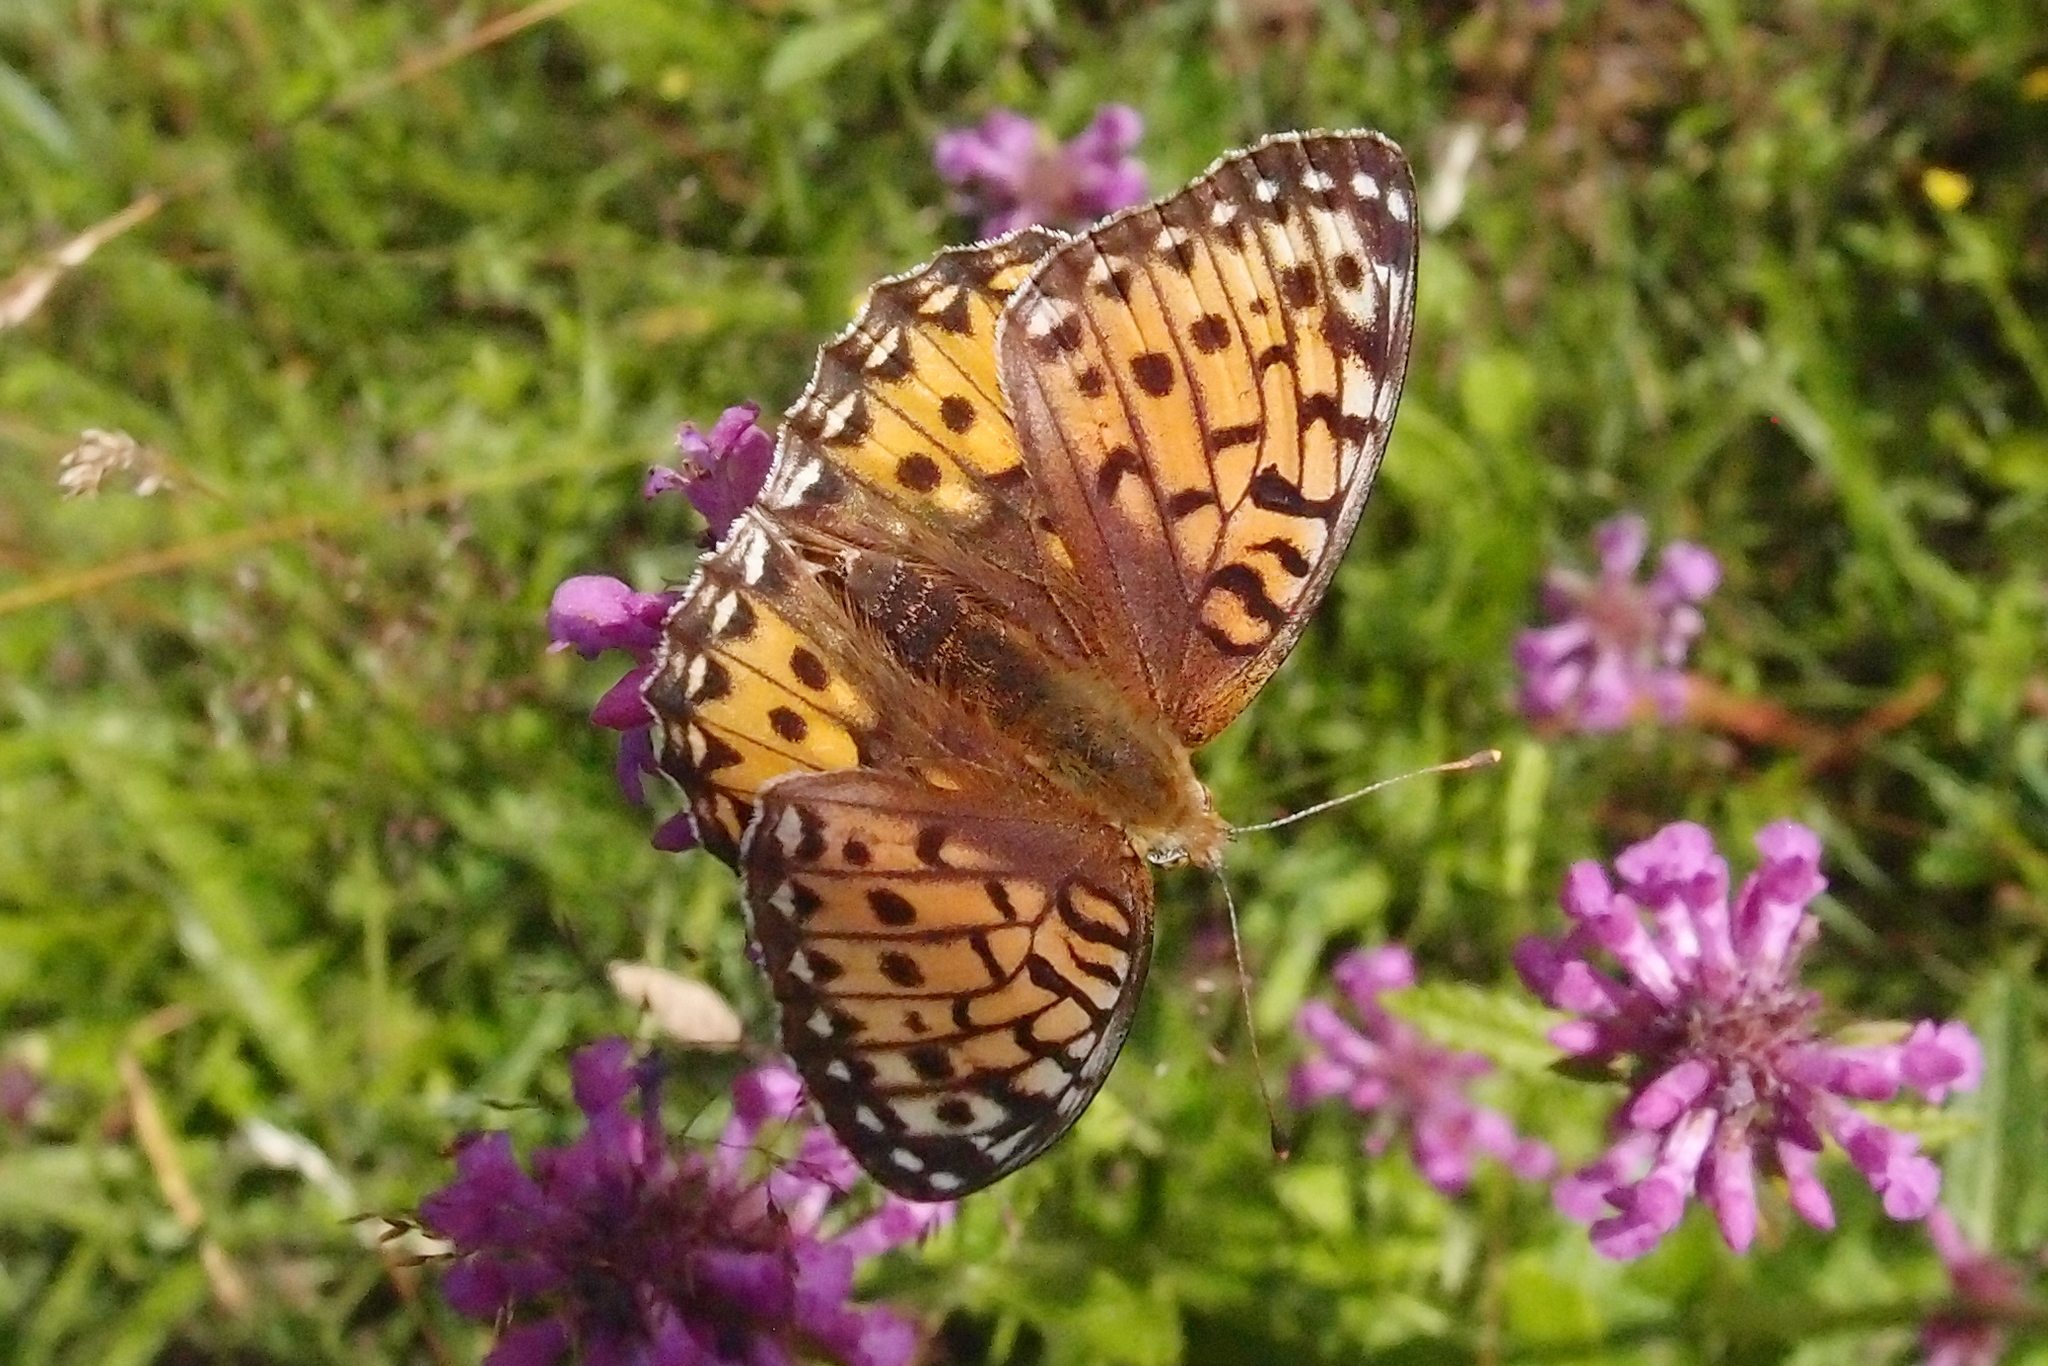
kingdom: Animalia
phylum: Arthropoda
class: Insecta
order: Lepidoptera
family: Nymphalidae
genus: Speyeria
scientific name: Speyeria aglaja
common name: Dark green fritillary
